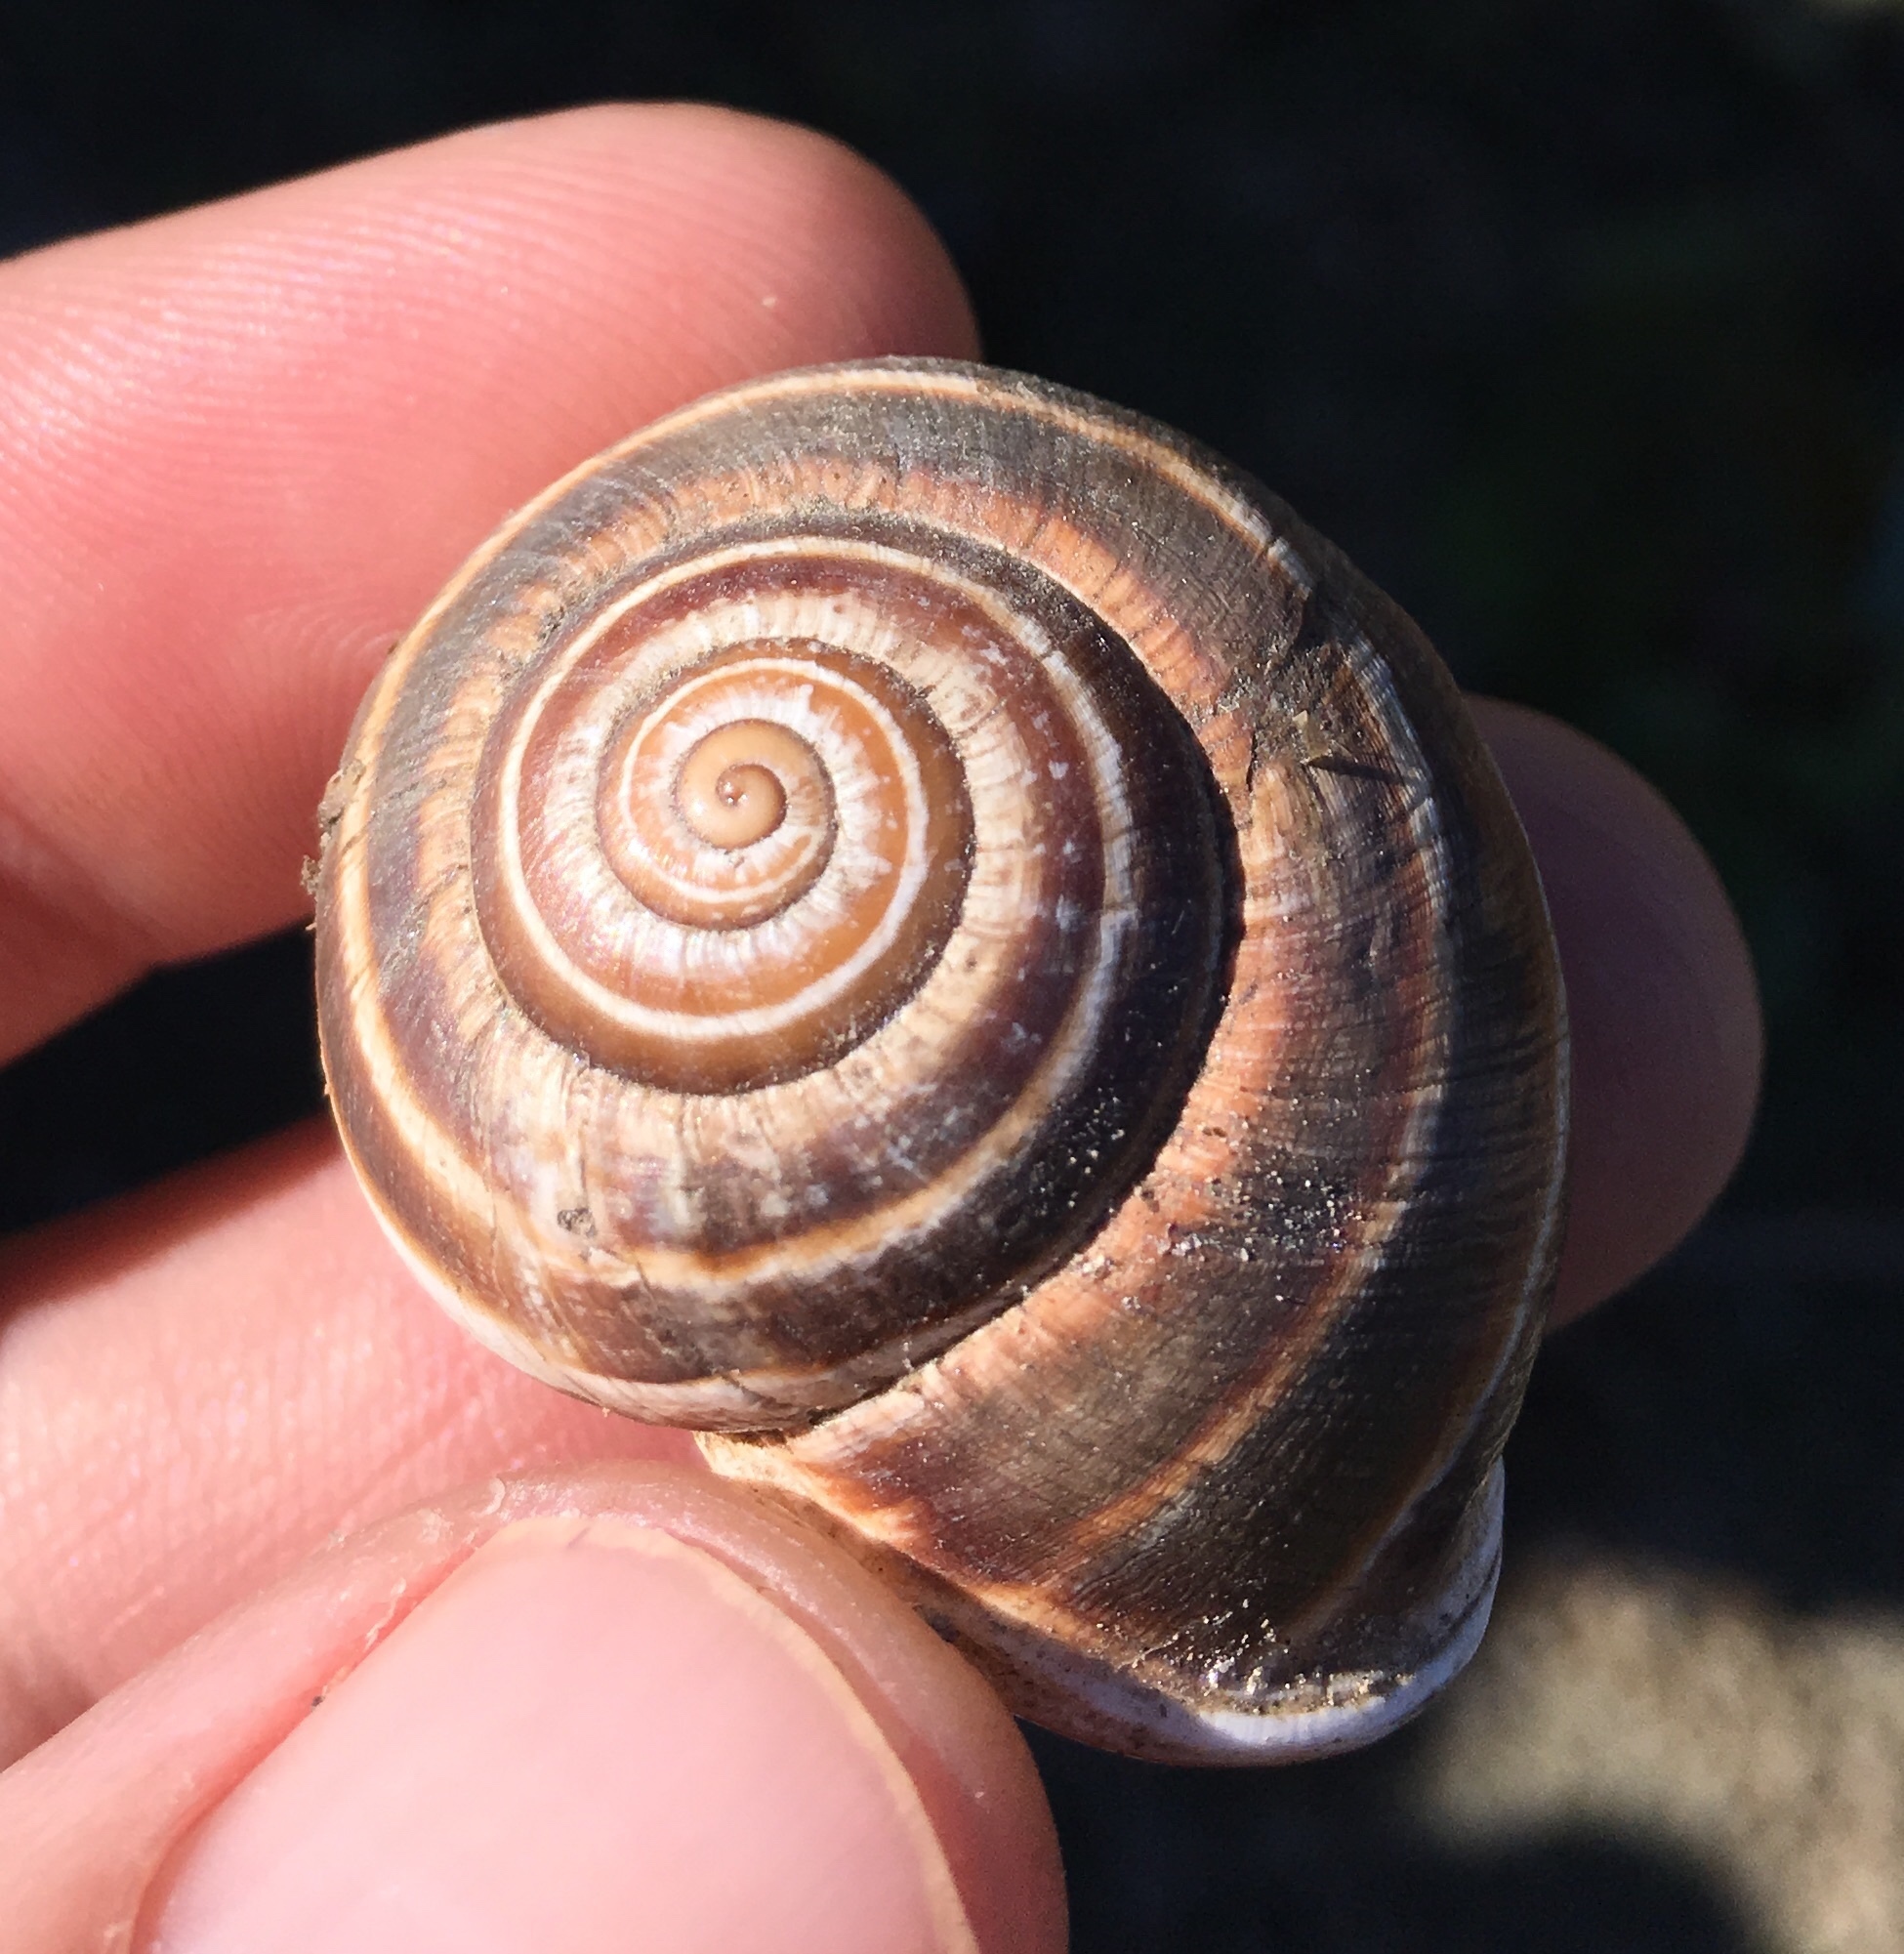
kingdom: Animalia
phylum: Mollusca
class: Gastropoda
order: Stylommatophora
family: Helicidae
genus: Otala
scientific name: Otala lactea
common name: Milk snail
